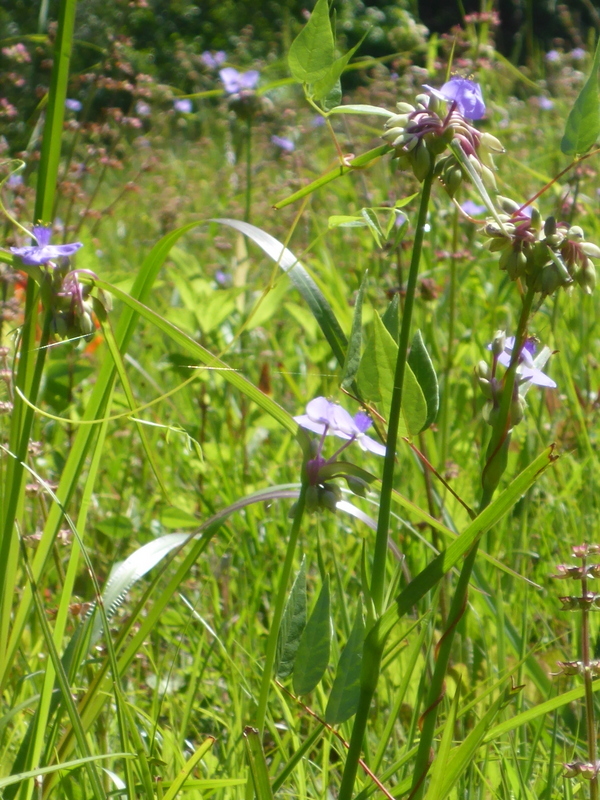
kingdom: Plantae
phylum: Tracheophyta
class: Liliopsida
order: Commelinales
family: Commelinaceae
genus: Tradescantia
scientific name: Tradescantia ohiensis
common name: Ohio spiderwort
